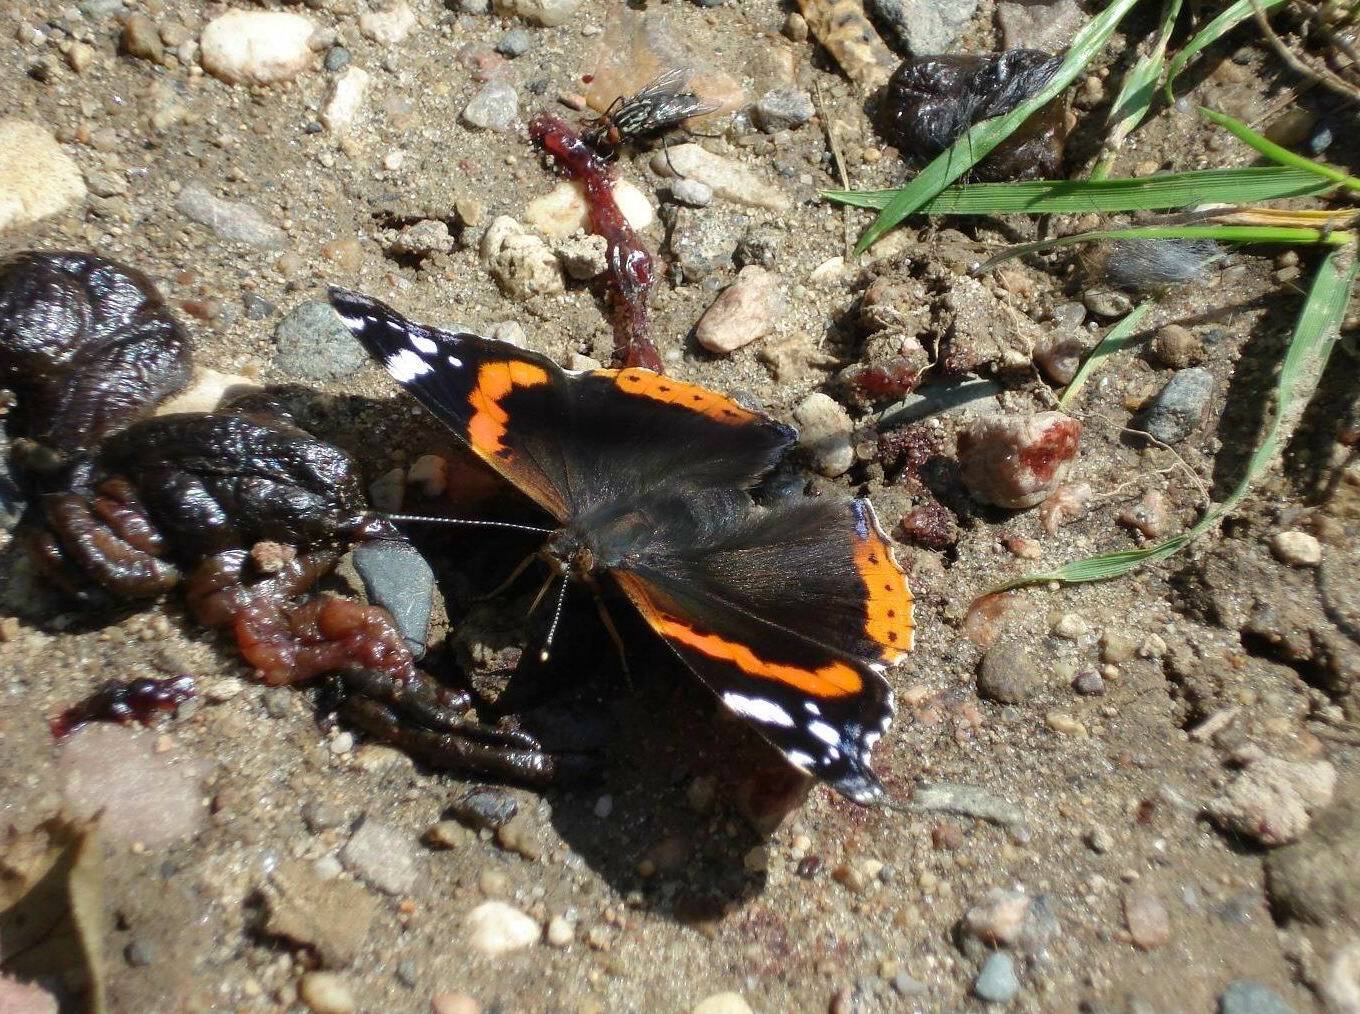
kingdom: Animalia
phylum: Arthropoda
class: Insecta
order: Lepidoptera
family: Nymphalidae
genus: Vanessa
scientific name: Vanessa atalanta
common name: Red admiral
